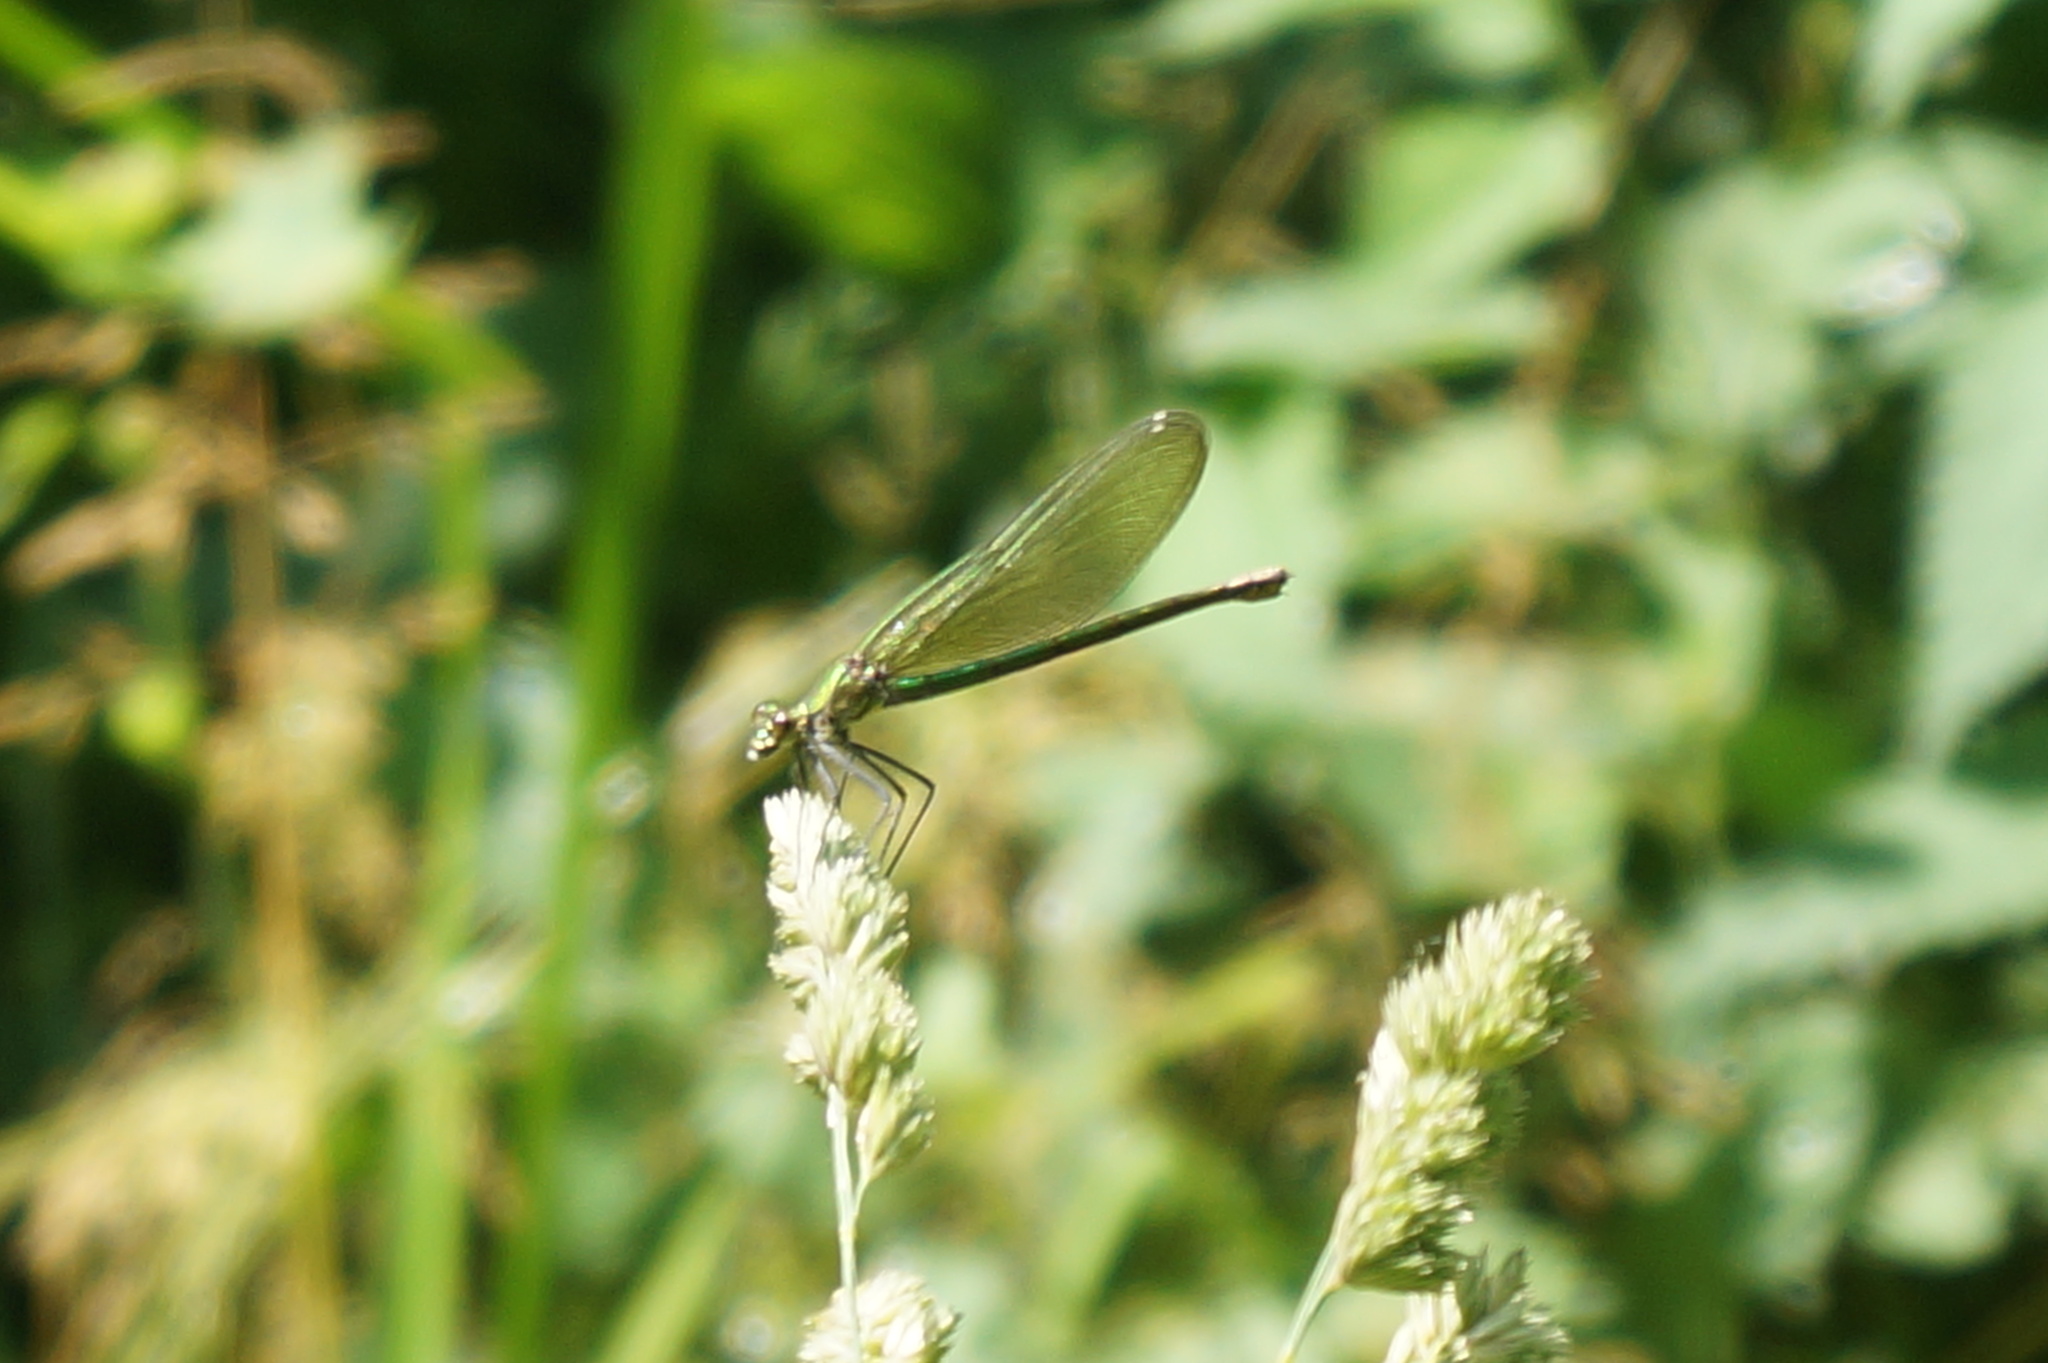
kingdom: Animalia
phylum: Arthropoda
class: Insecta
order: Odonata
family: Calopterygidae
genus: Calopteryx
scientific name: Calopteryx splendens
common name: Banded demoiselle
